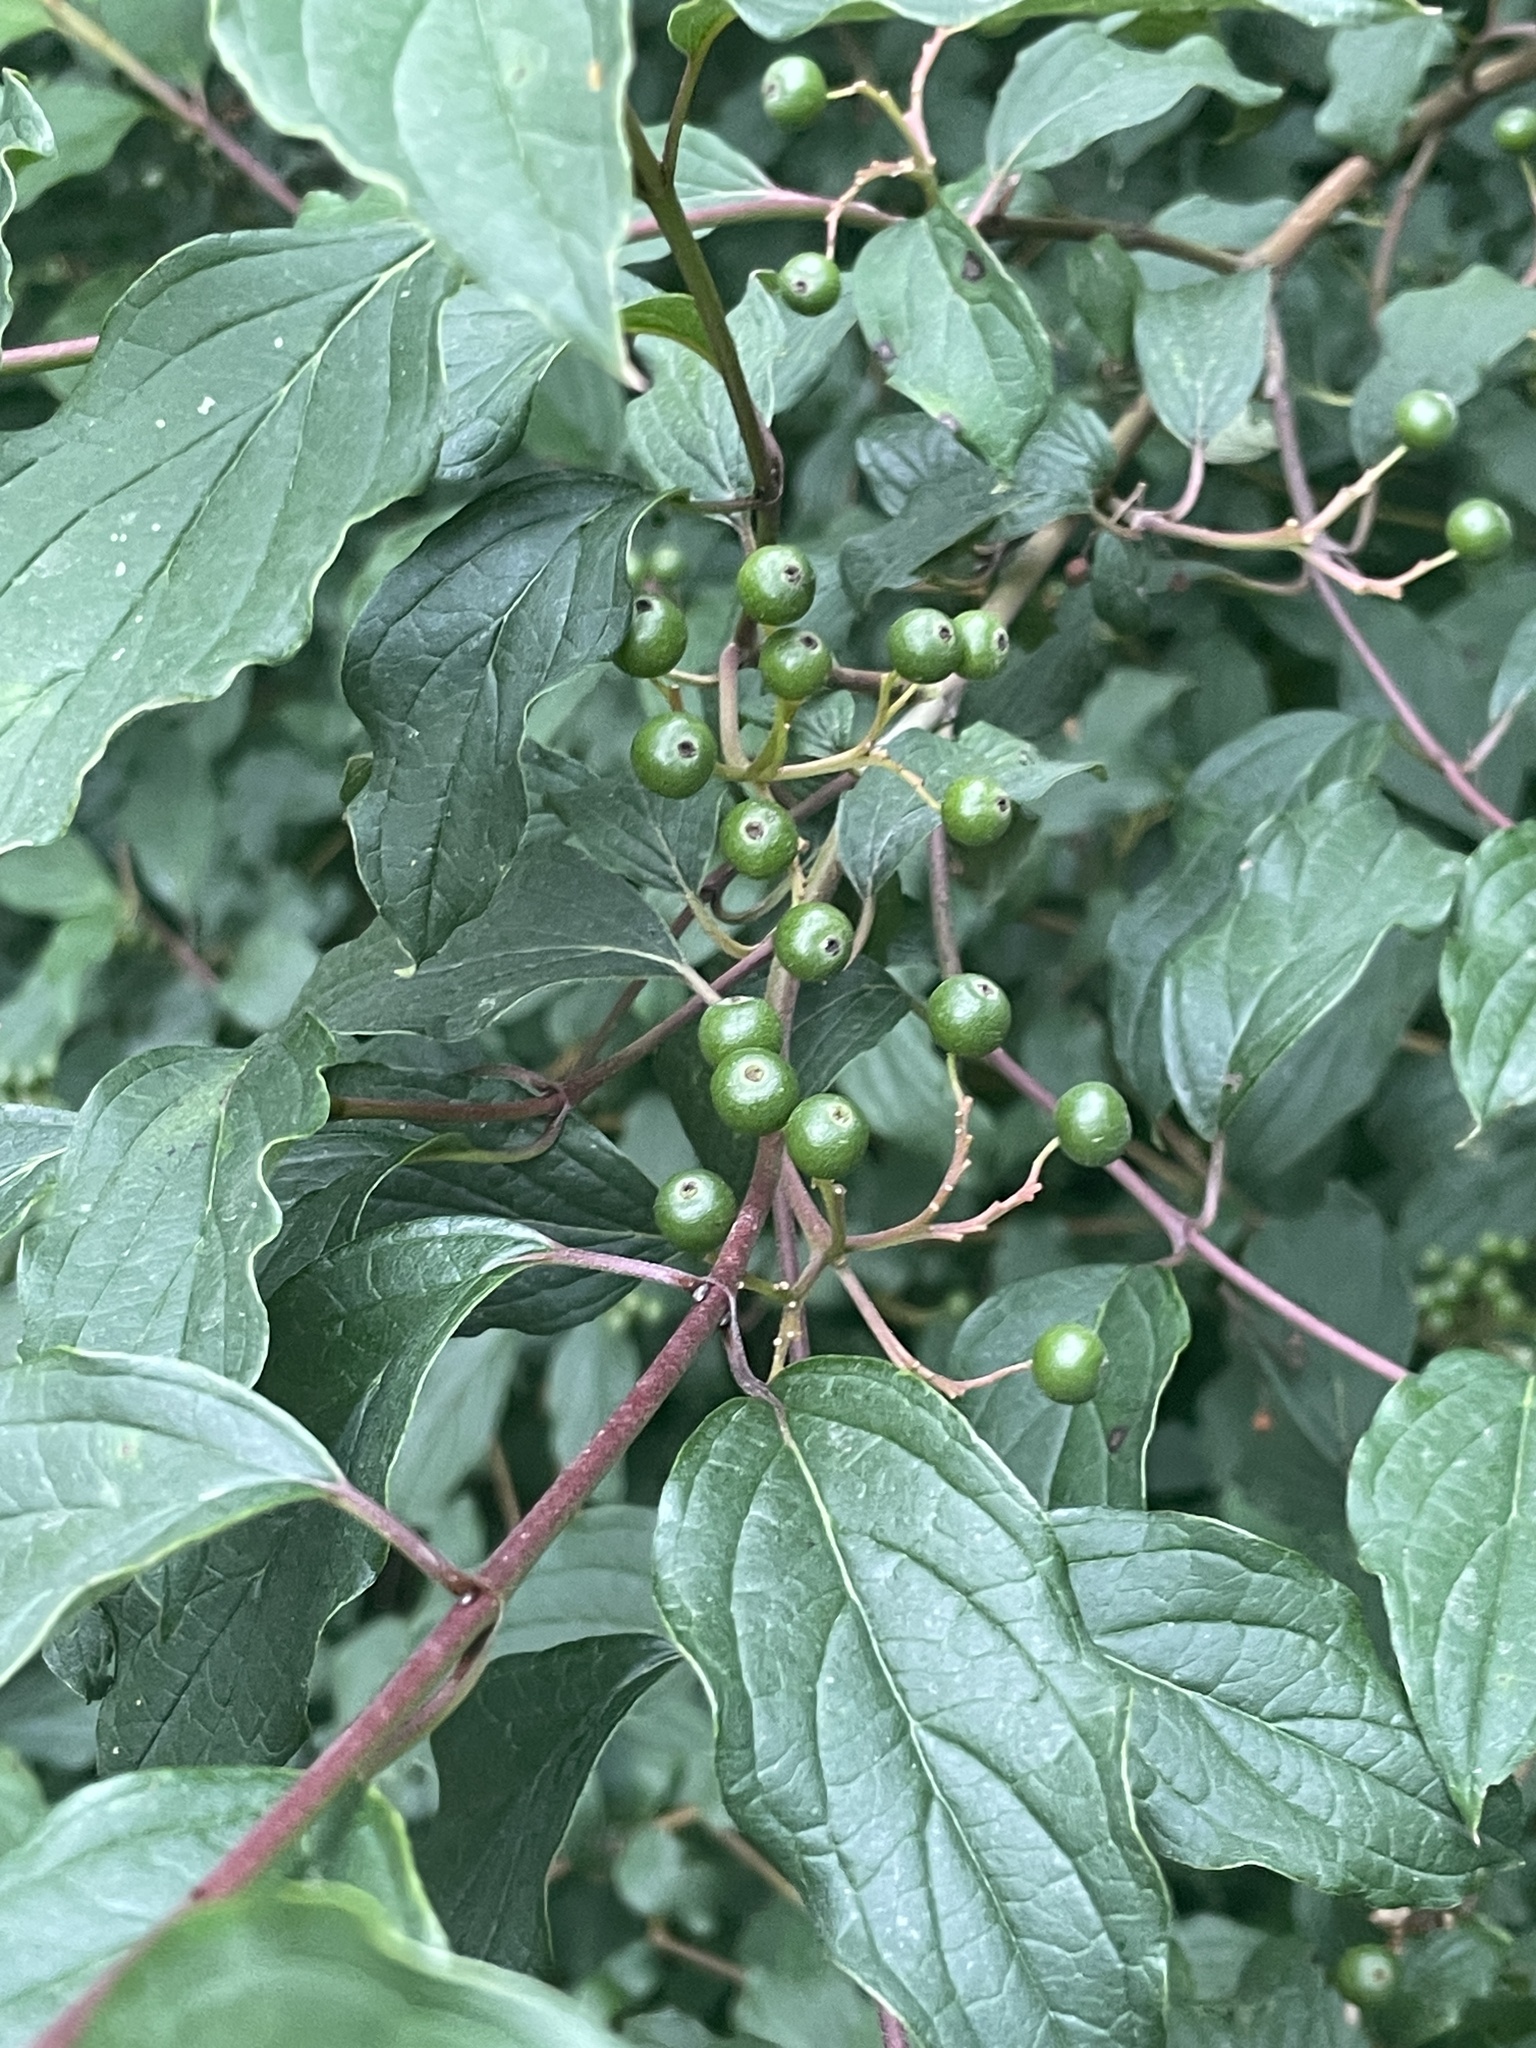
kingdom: Plantae
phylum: Tracheophyta
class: Magnoliopsida
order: Cornales
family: Cornaceae
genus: Cornus
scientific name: Cornus sanguinea
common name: Dogwood
